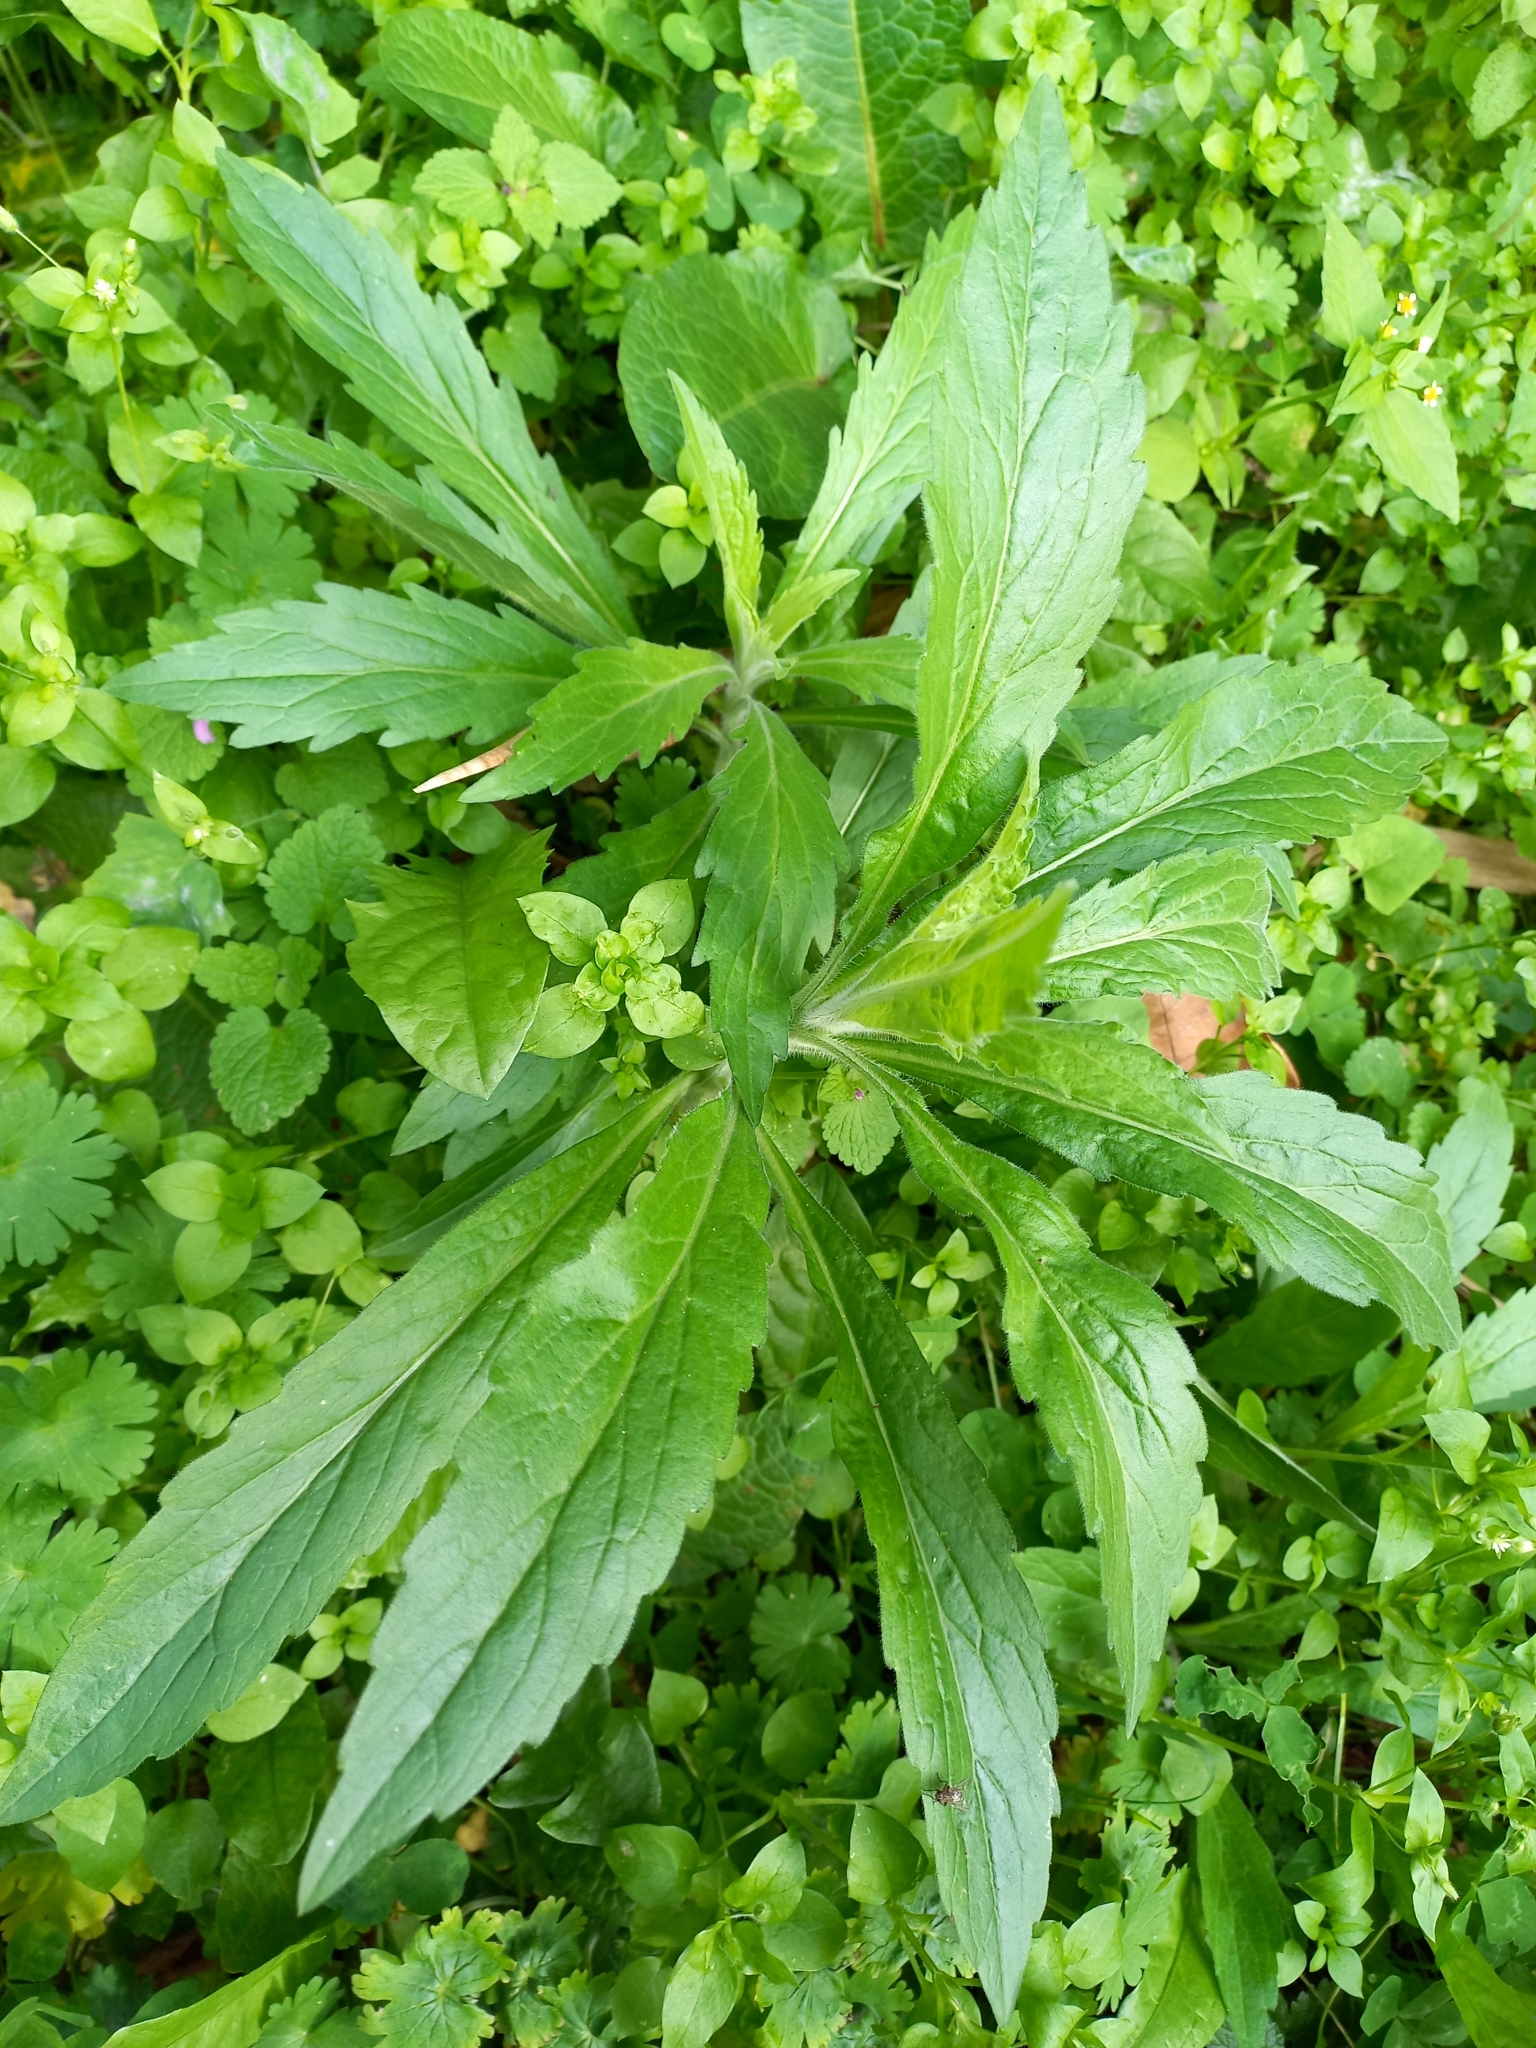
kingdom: Plantae
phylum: Tracheophyta
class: Magnoliopsida
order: Asterales
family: Asteraceae
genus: Erigeron
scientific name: Erigeron sumatrensis
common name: Daisy
